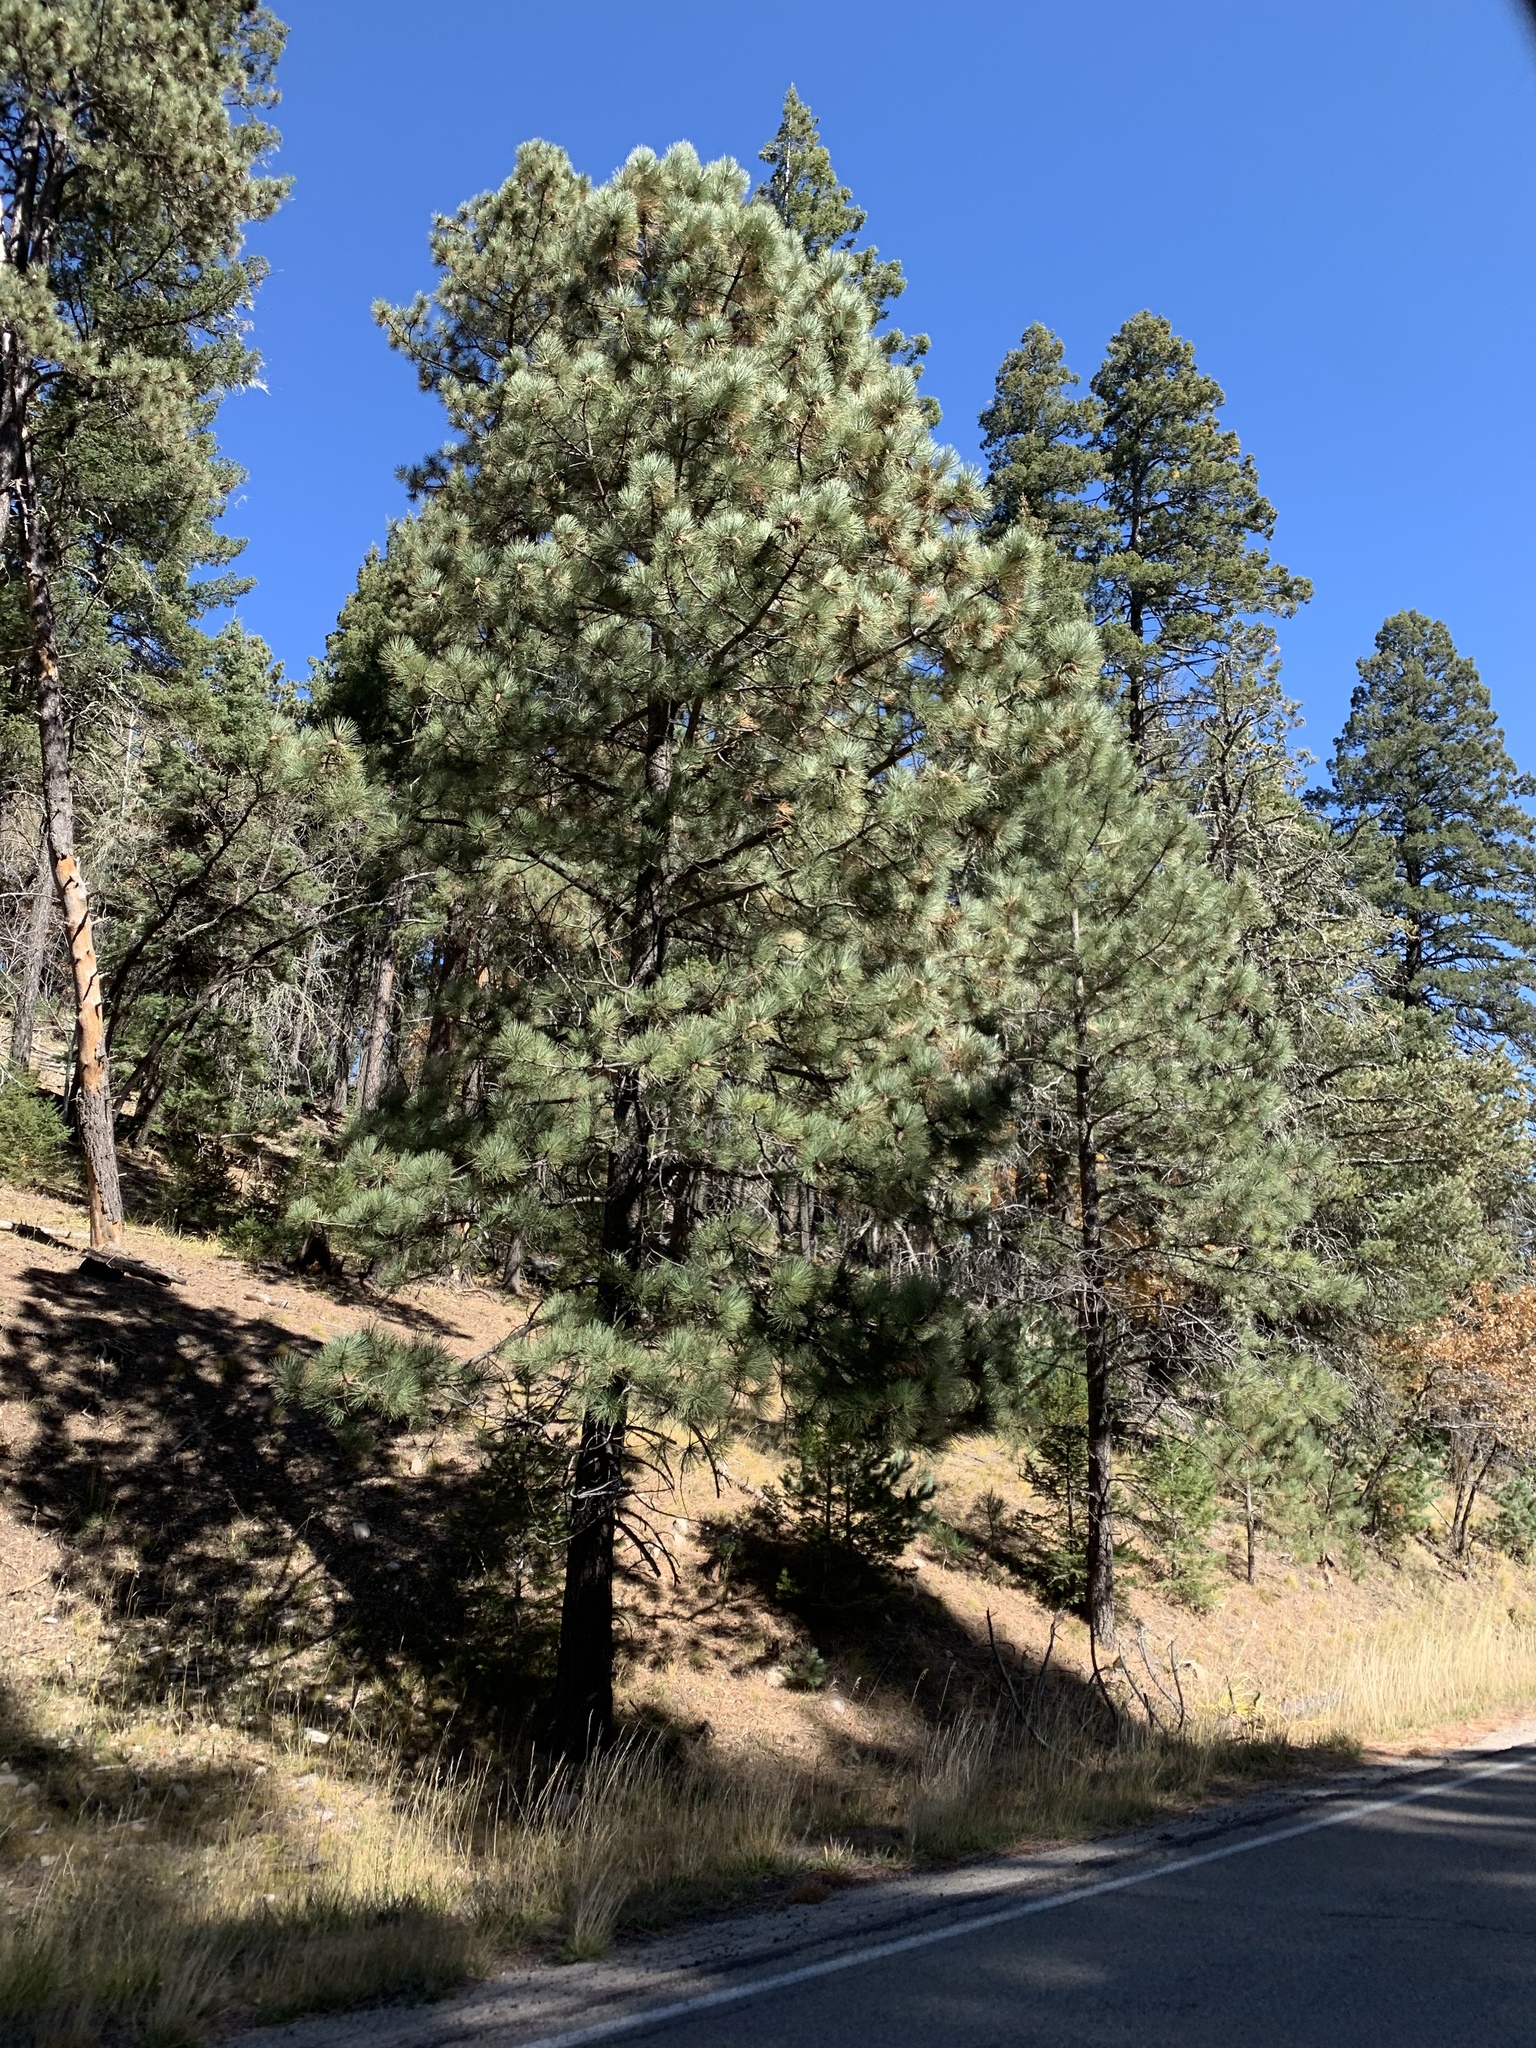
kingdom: Plantae
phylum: Tracheophyta
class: Pinopsida
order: Pinales
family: Pinaceae
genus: Pinus
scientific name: Pinus ponderosa
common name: Western yellow-pine
